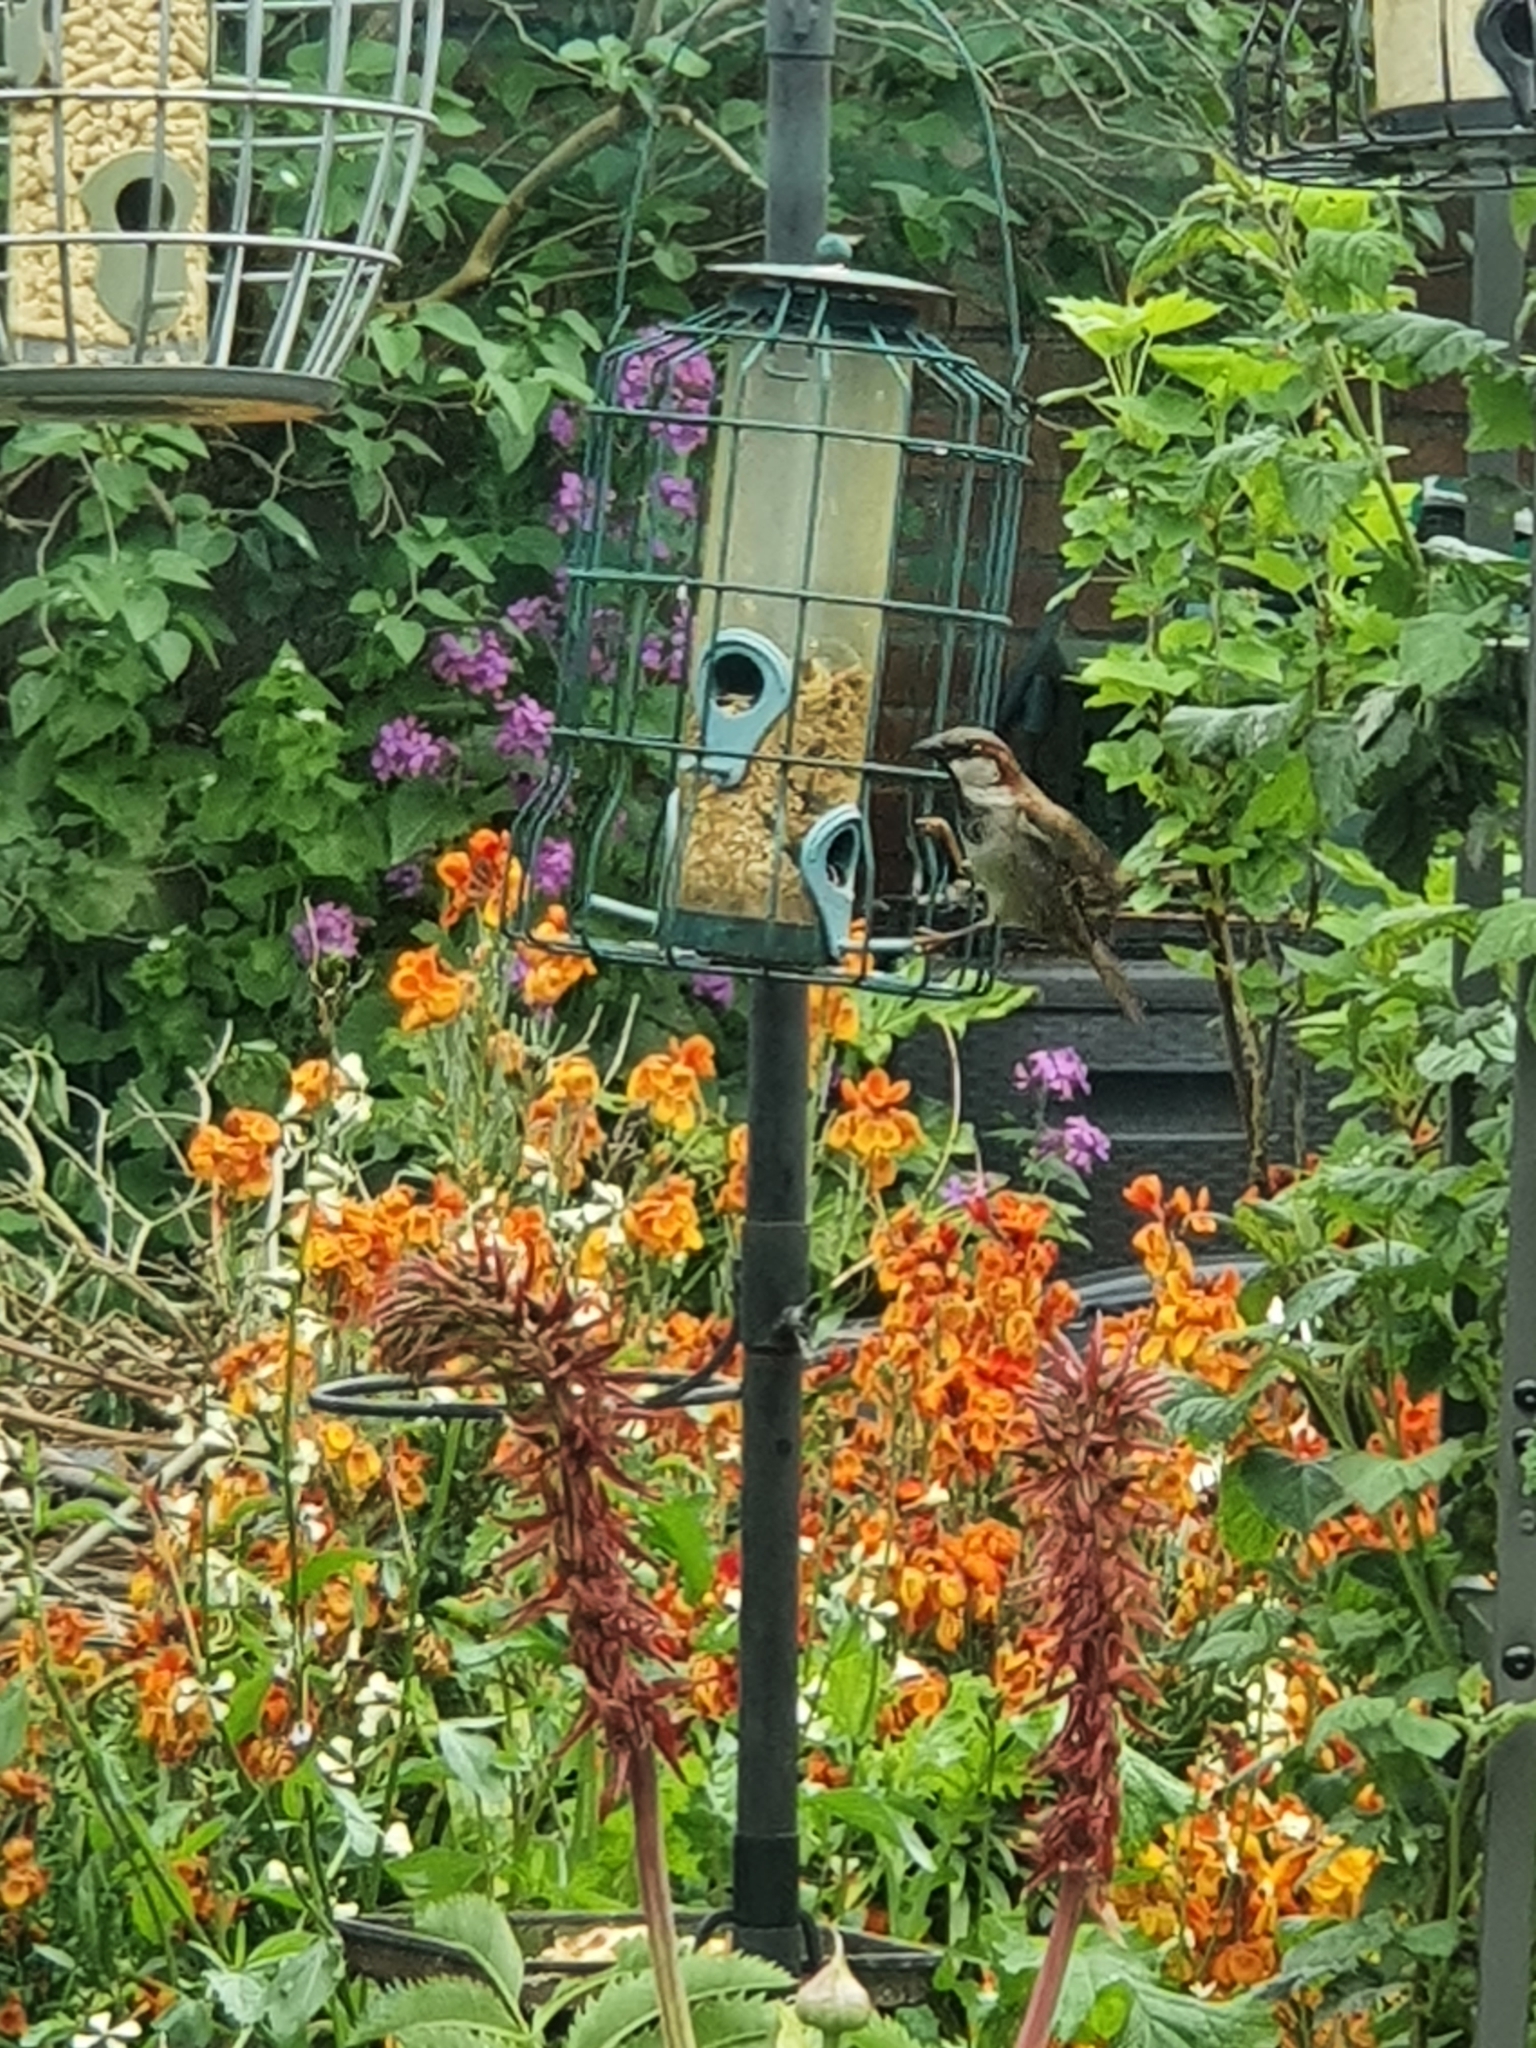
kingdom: Animalia
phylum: Chordata
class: Aves
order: Passeriformes
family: Passeridae
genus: Passer
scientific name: Passer domesticus
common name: House sparrow
